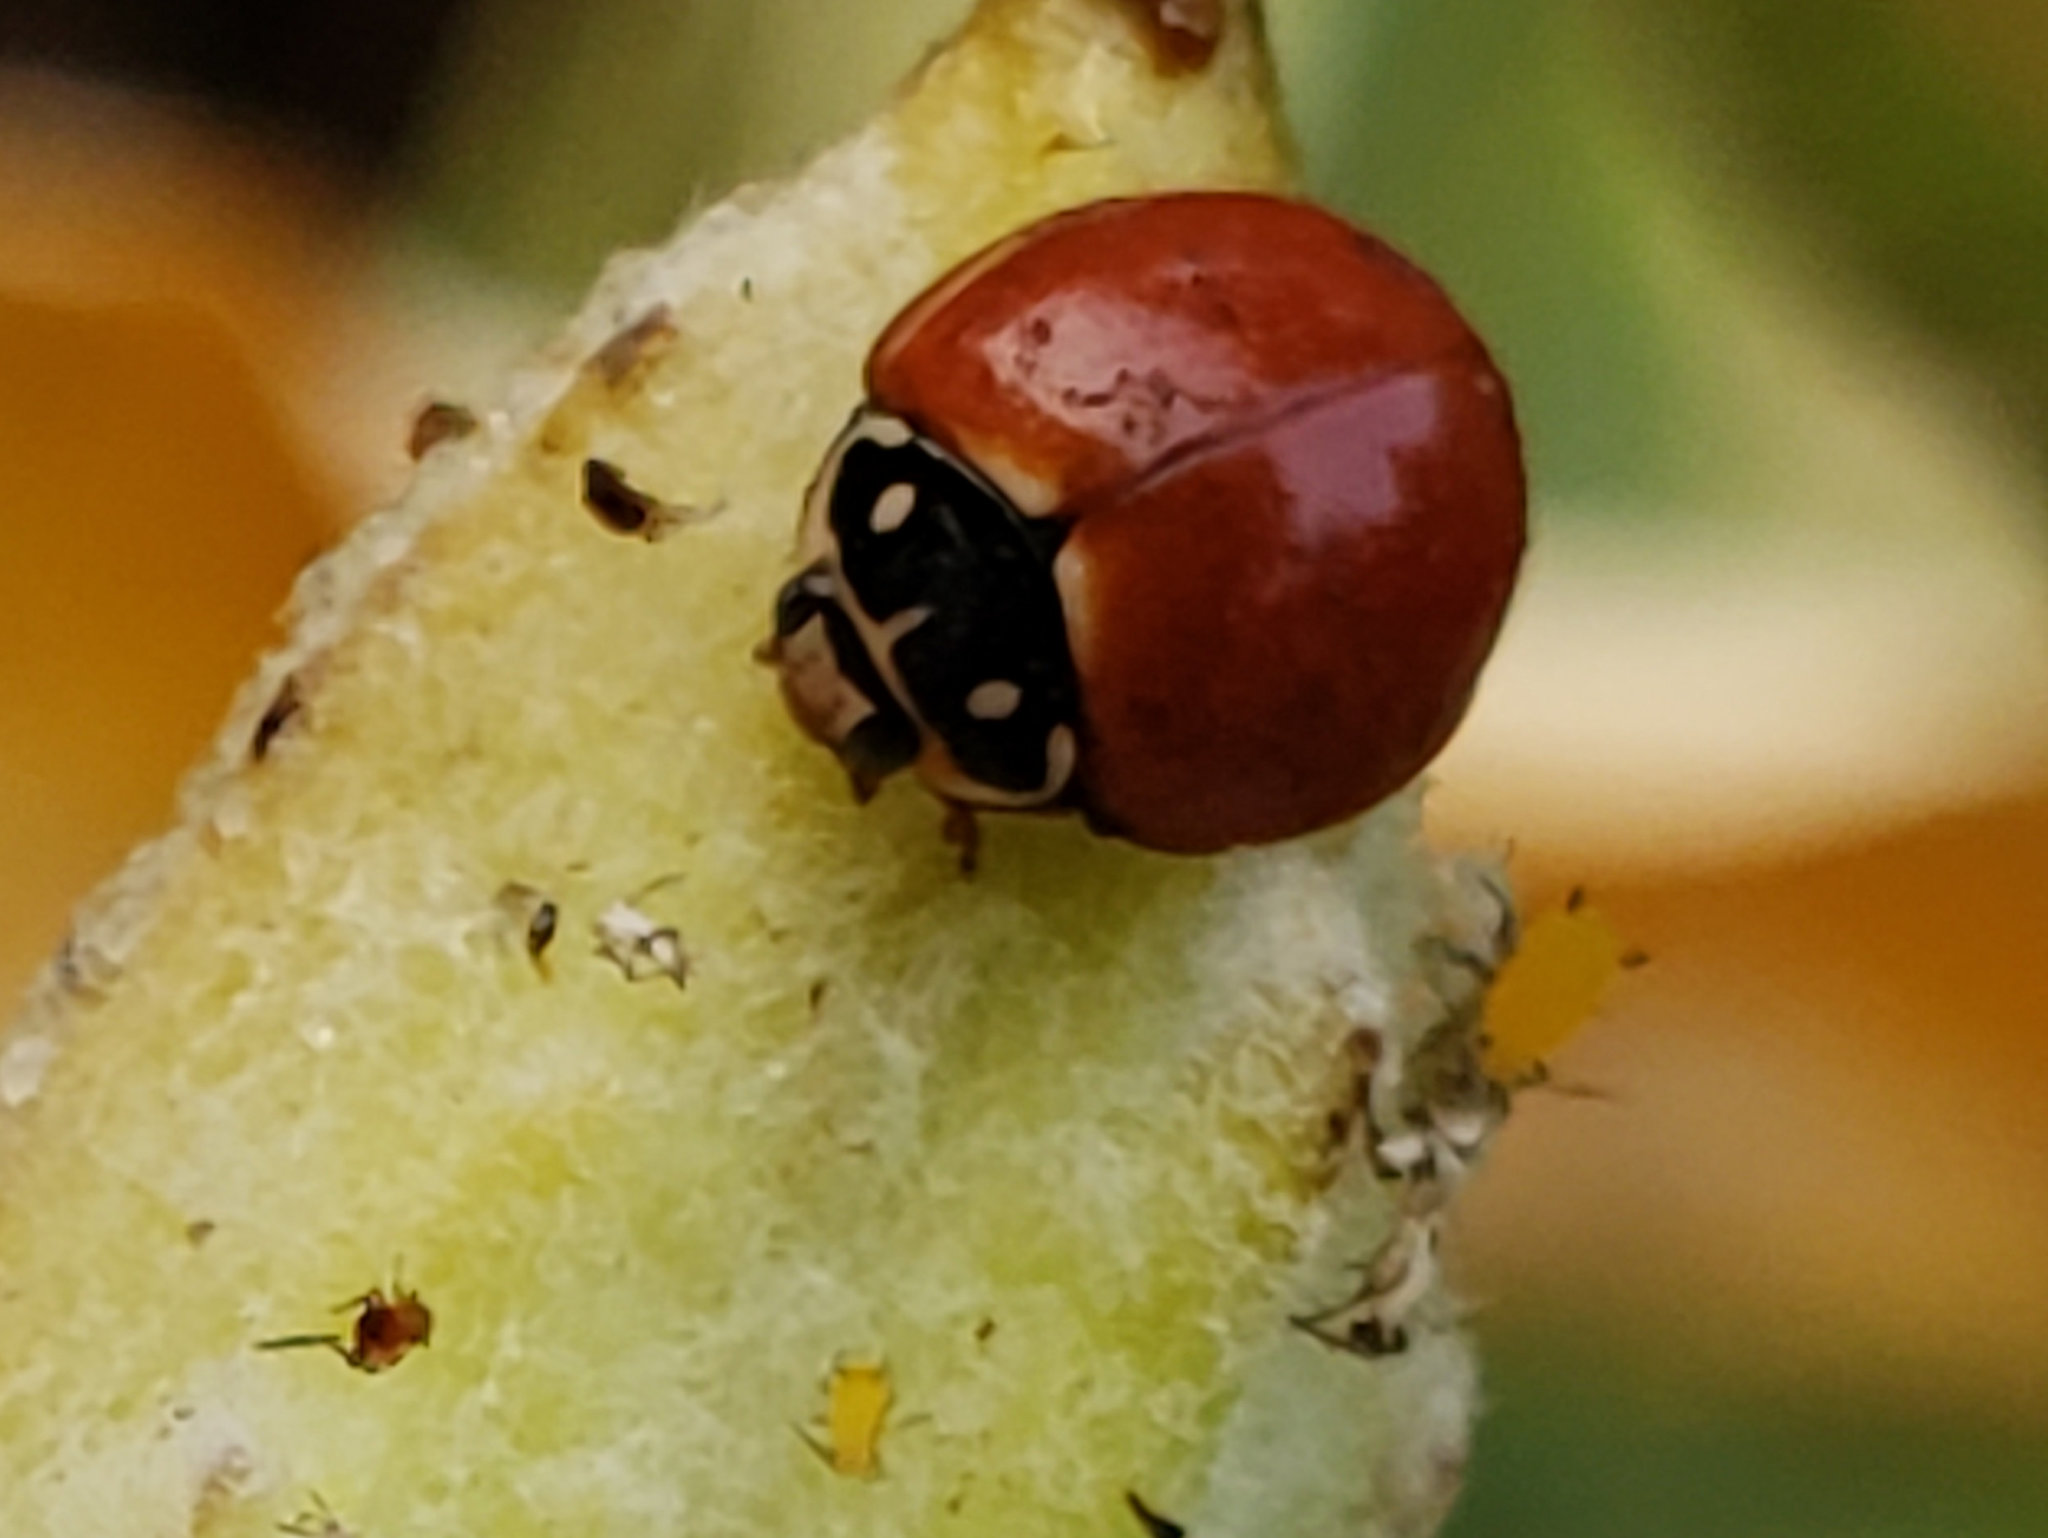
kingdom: Animalia
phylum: Arthropoda
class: Insecta
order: Coleoptera
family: Coccinellidae
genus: Cycloneda
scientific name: Cycloneda sanguinea
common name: Ladybird beetle
